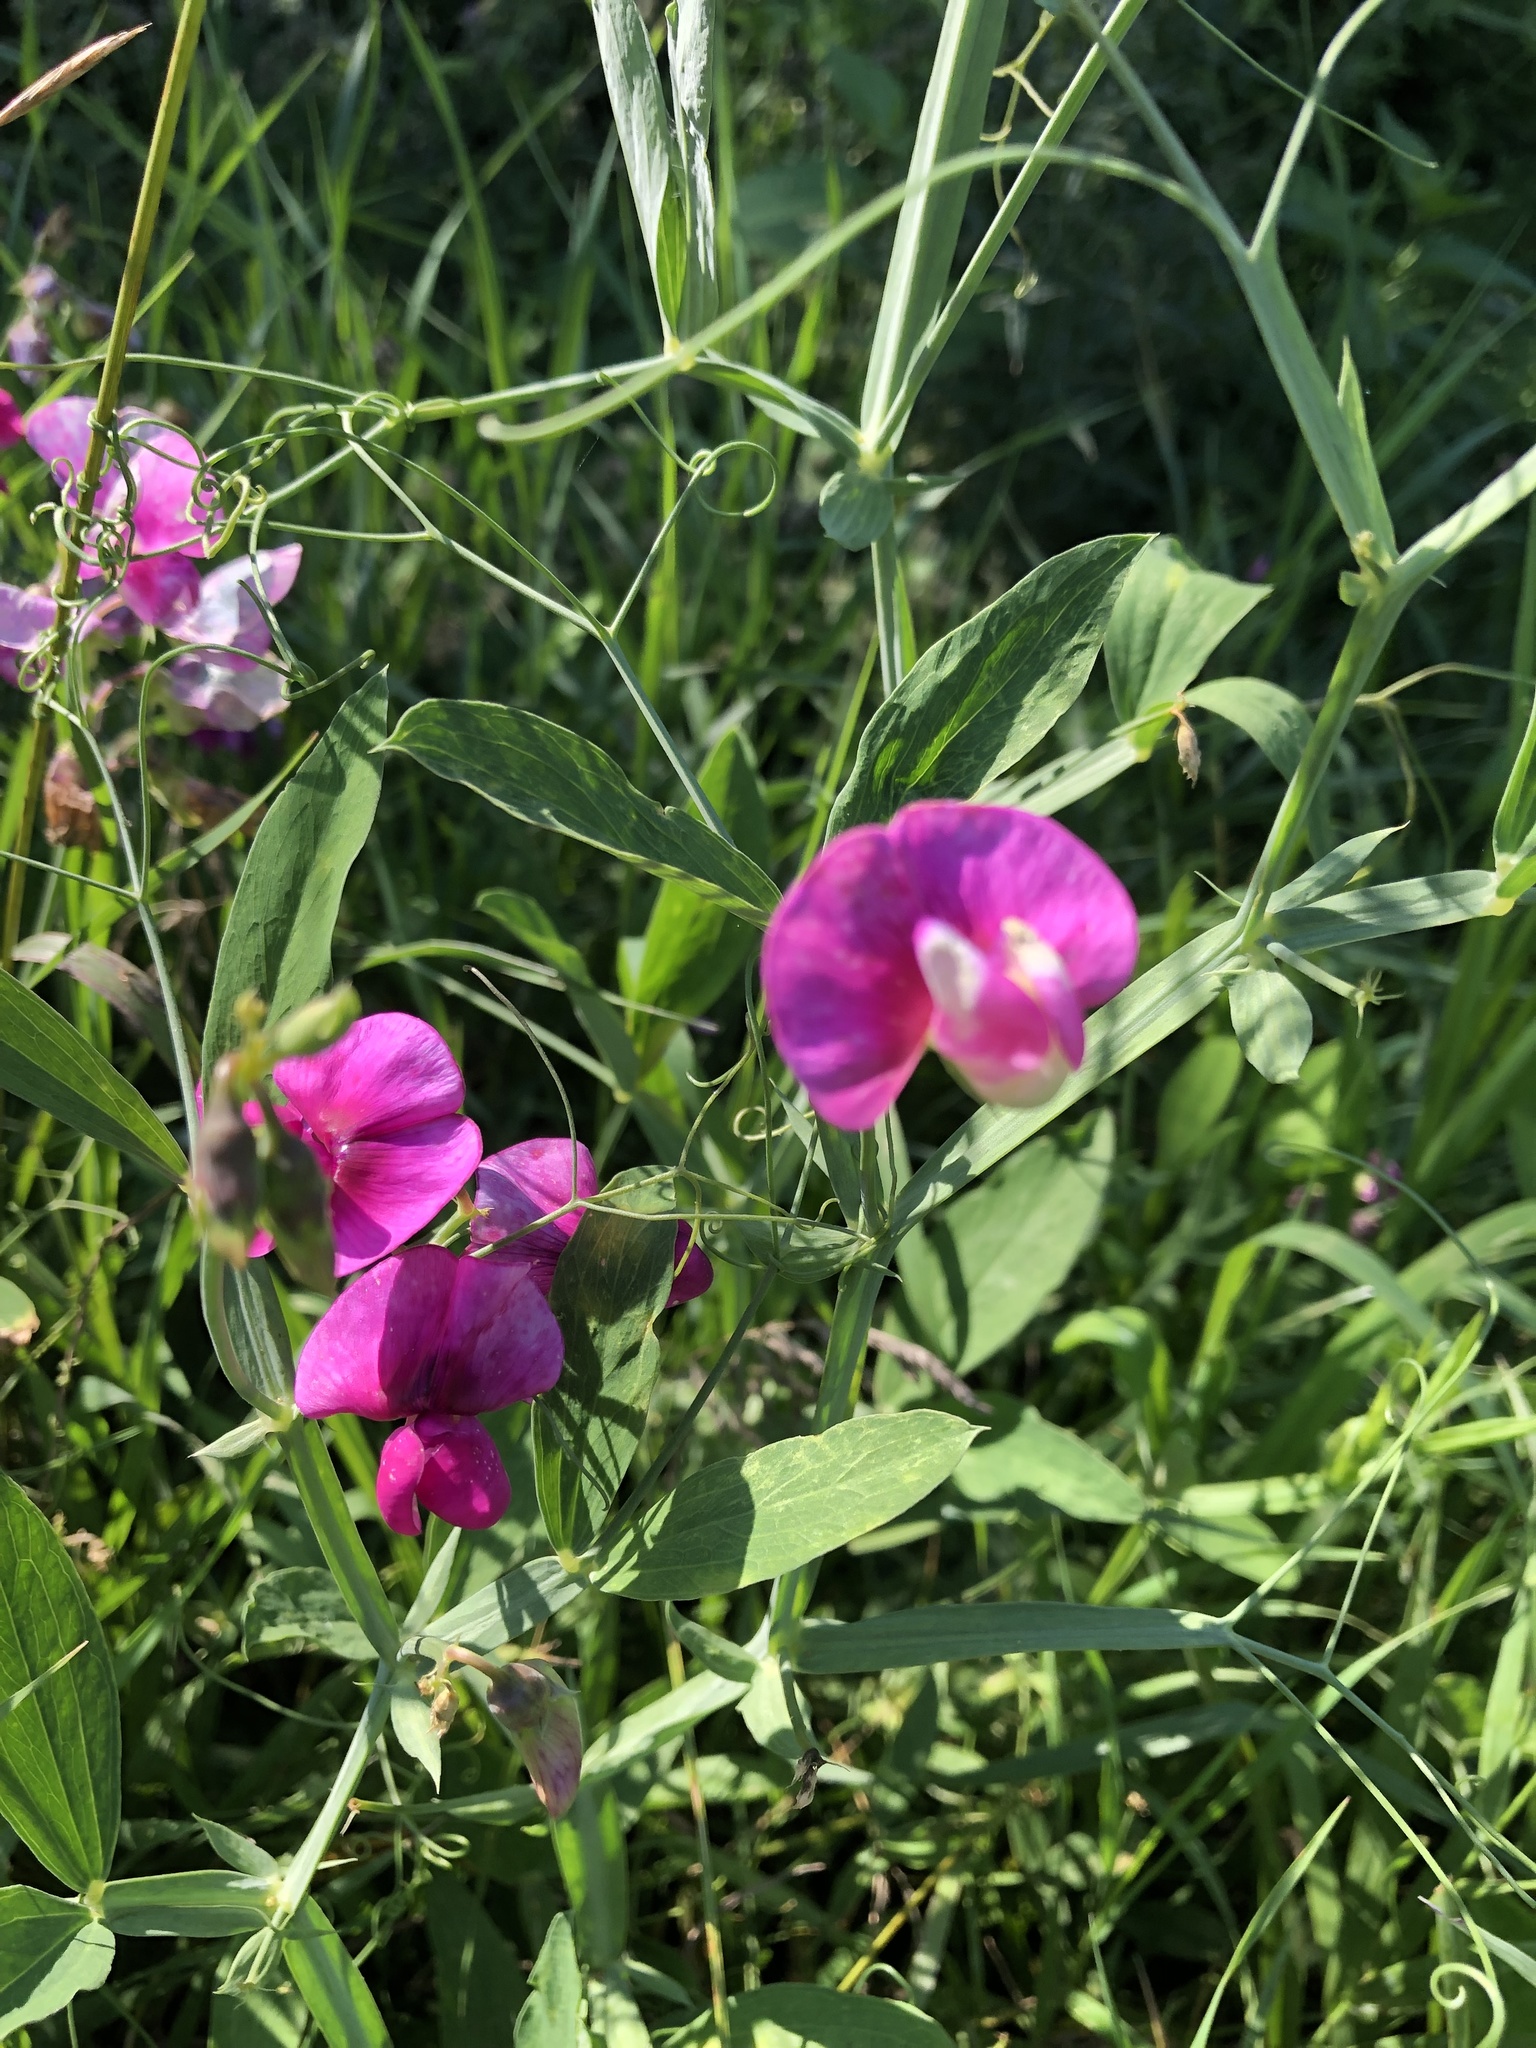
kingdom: Plantae
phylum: Tracheophyta
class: Magnoliopsida
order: Fabales
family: Fabaceae
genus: Lathyrus
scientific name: Lathyrus latifolius
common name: Perennial pea
